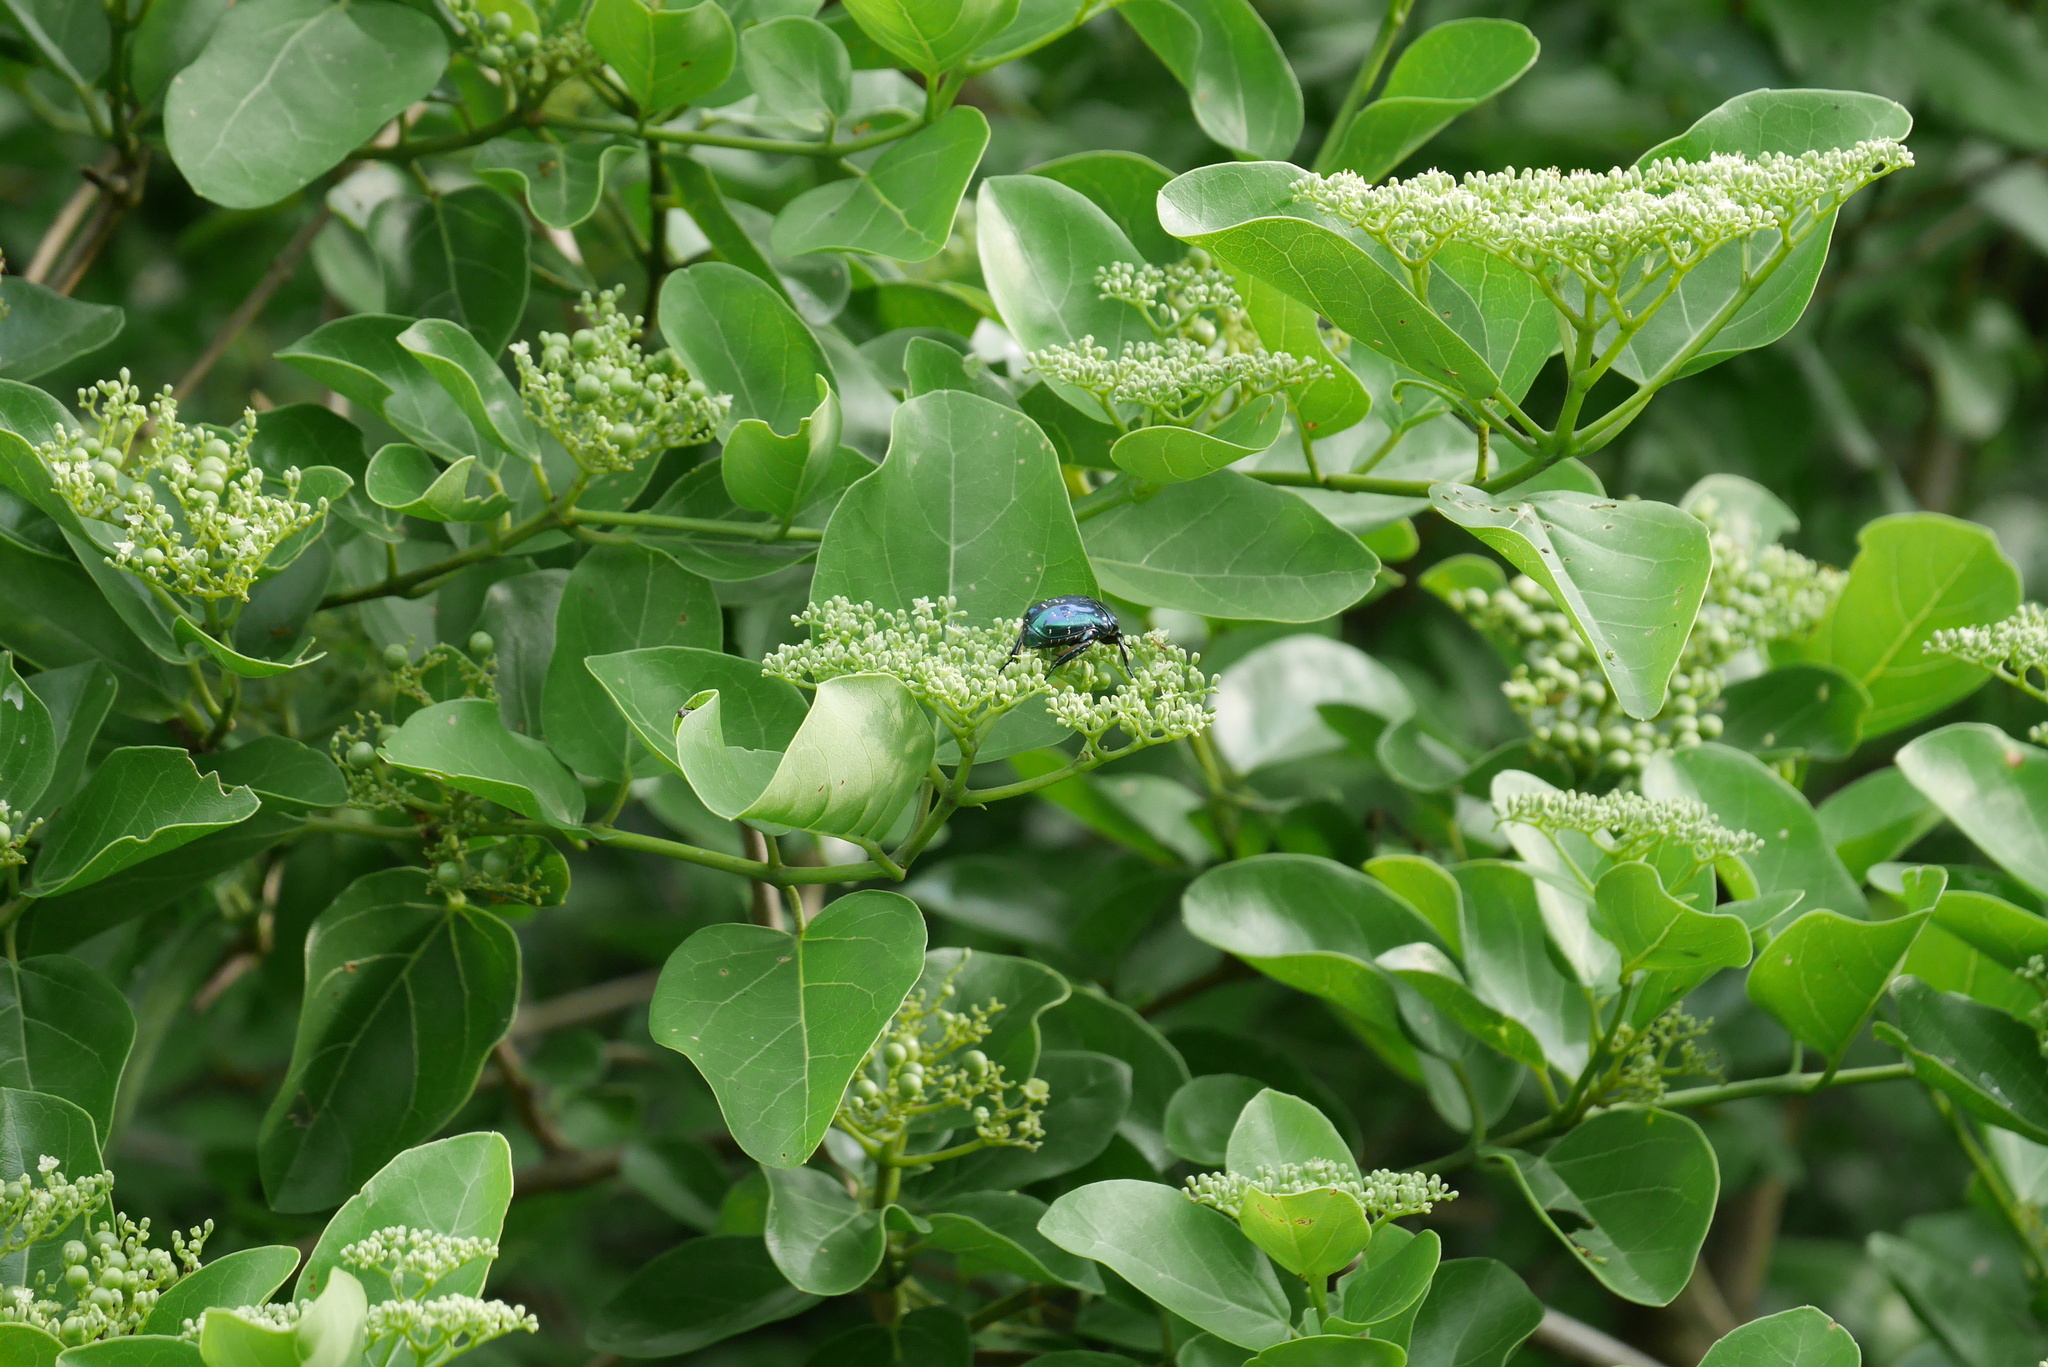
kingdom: Animalia
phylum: Arthropoda
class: Insecta
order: Coleoptera
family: Scarabaeidae
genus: Protaetia
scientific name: Protaetia elegans
